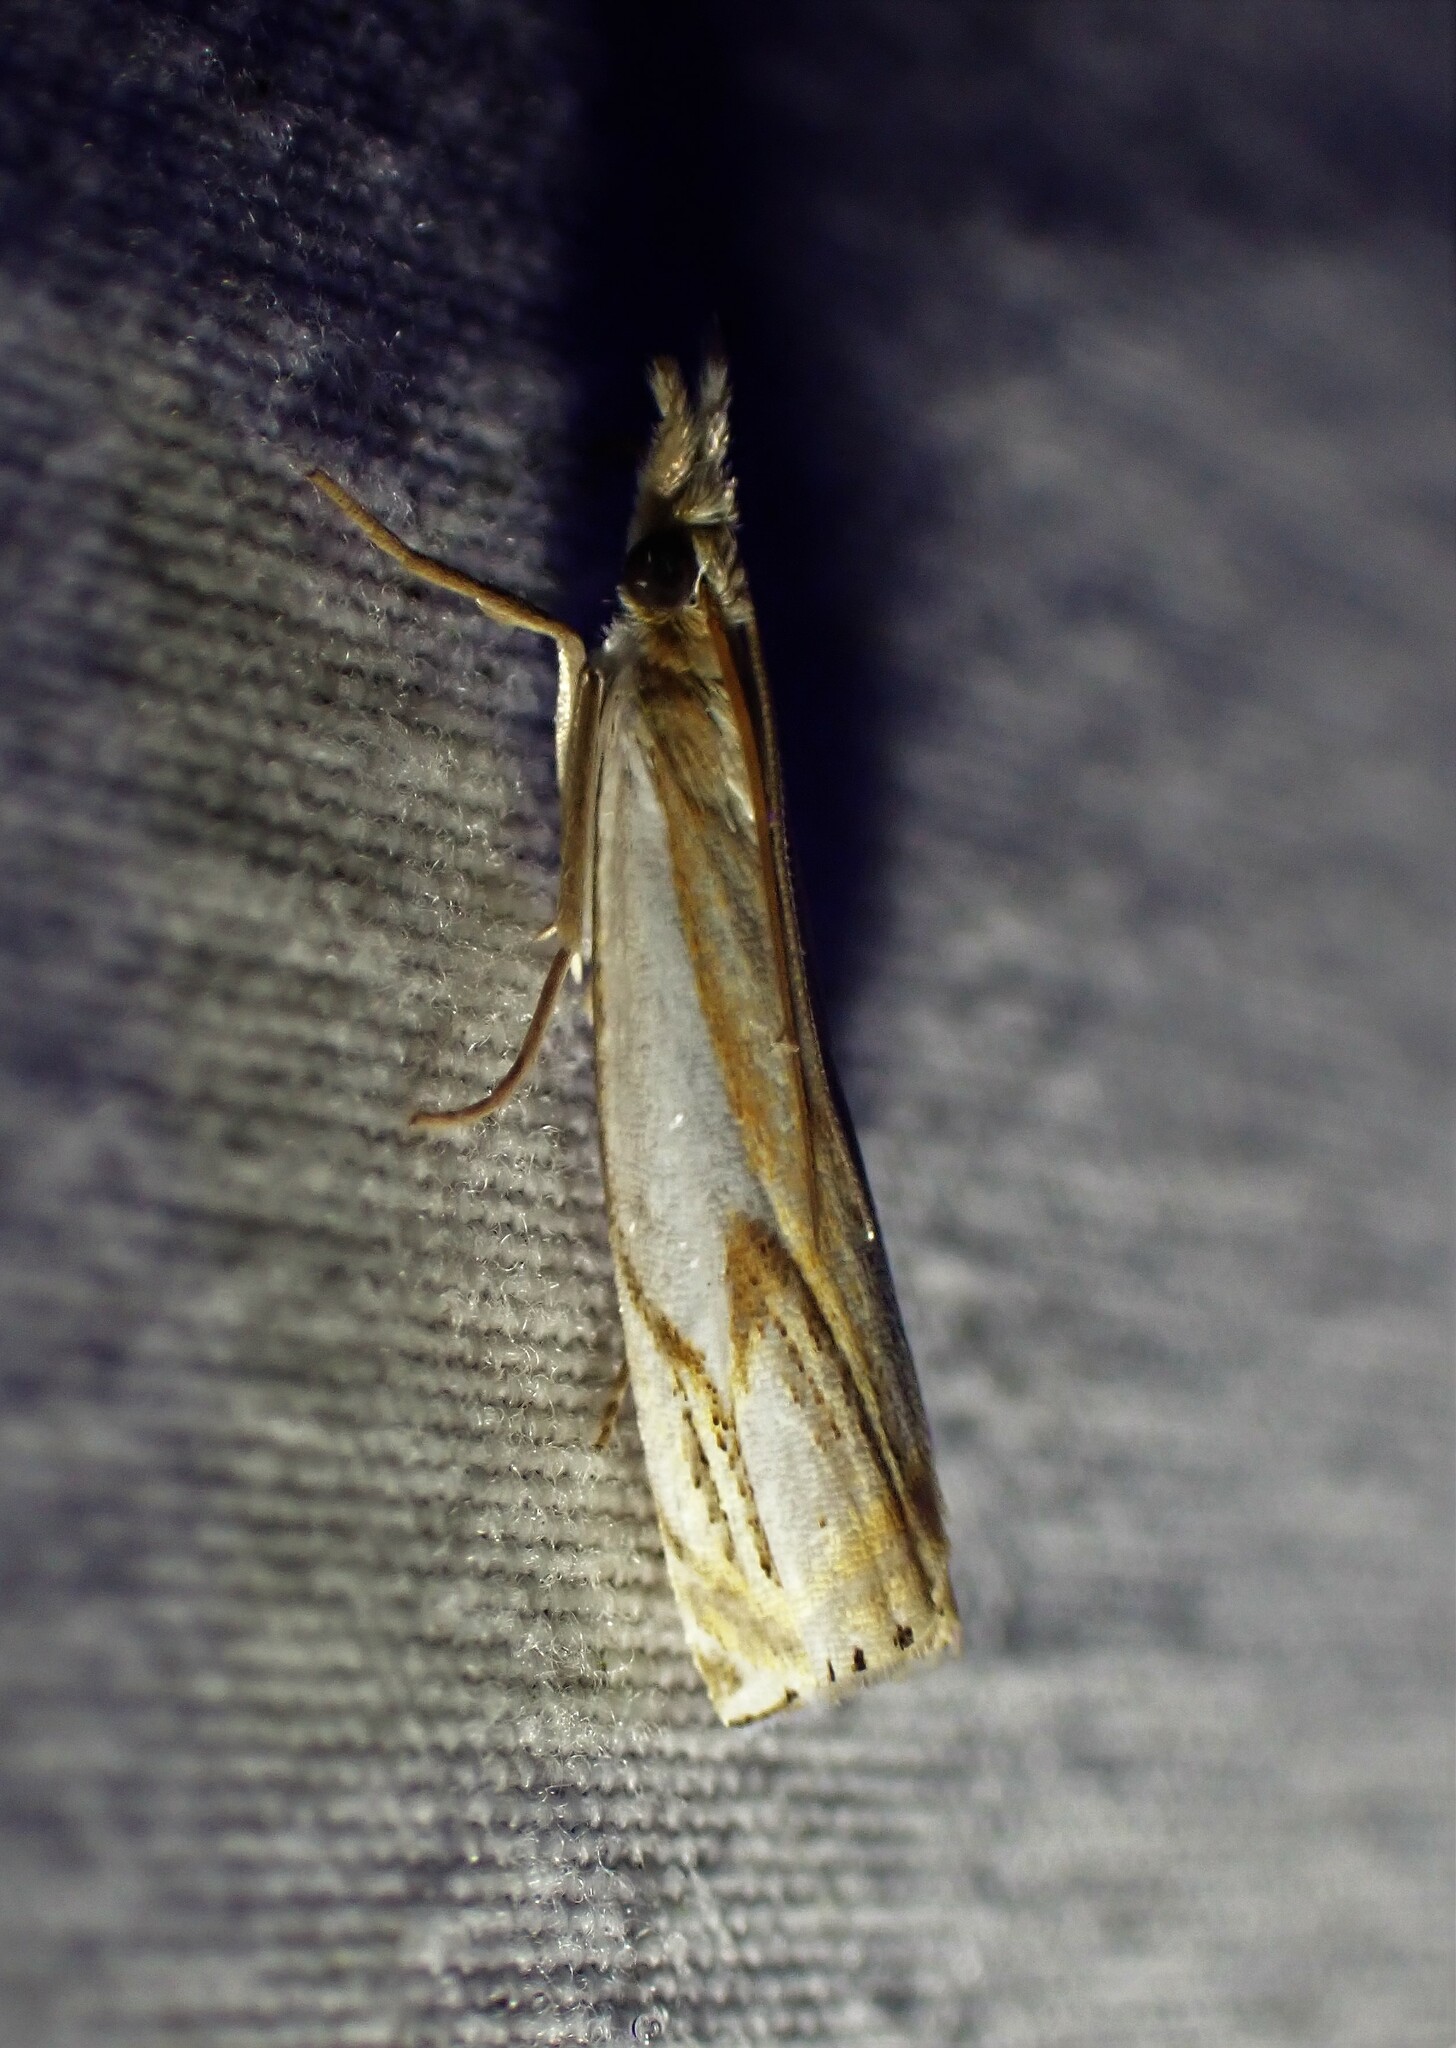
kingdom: Animalia
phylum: Arthropoda
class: Insecta
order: Lepidoptera
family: Crambidae
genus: Crambus
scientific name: Crambus agitatellus
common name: Double-banded grass-veneer
